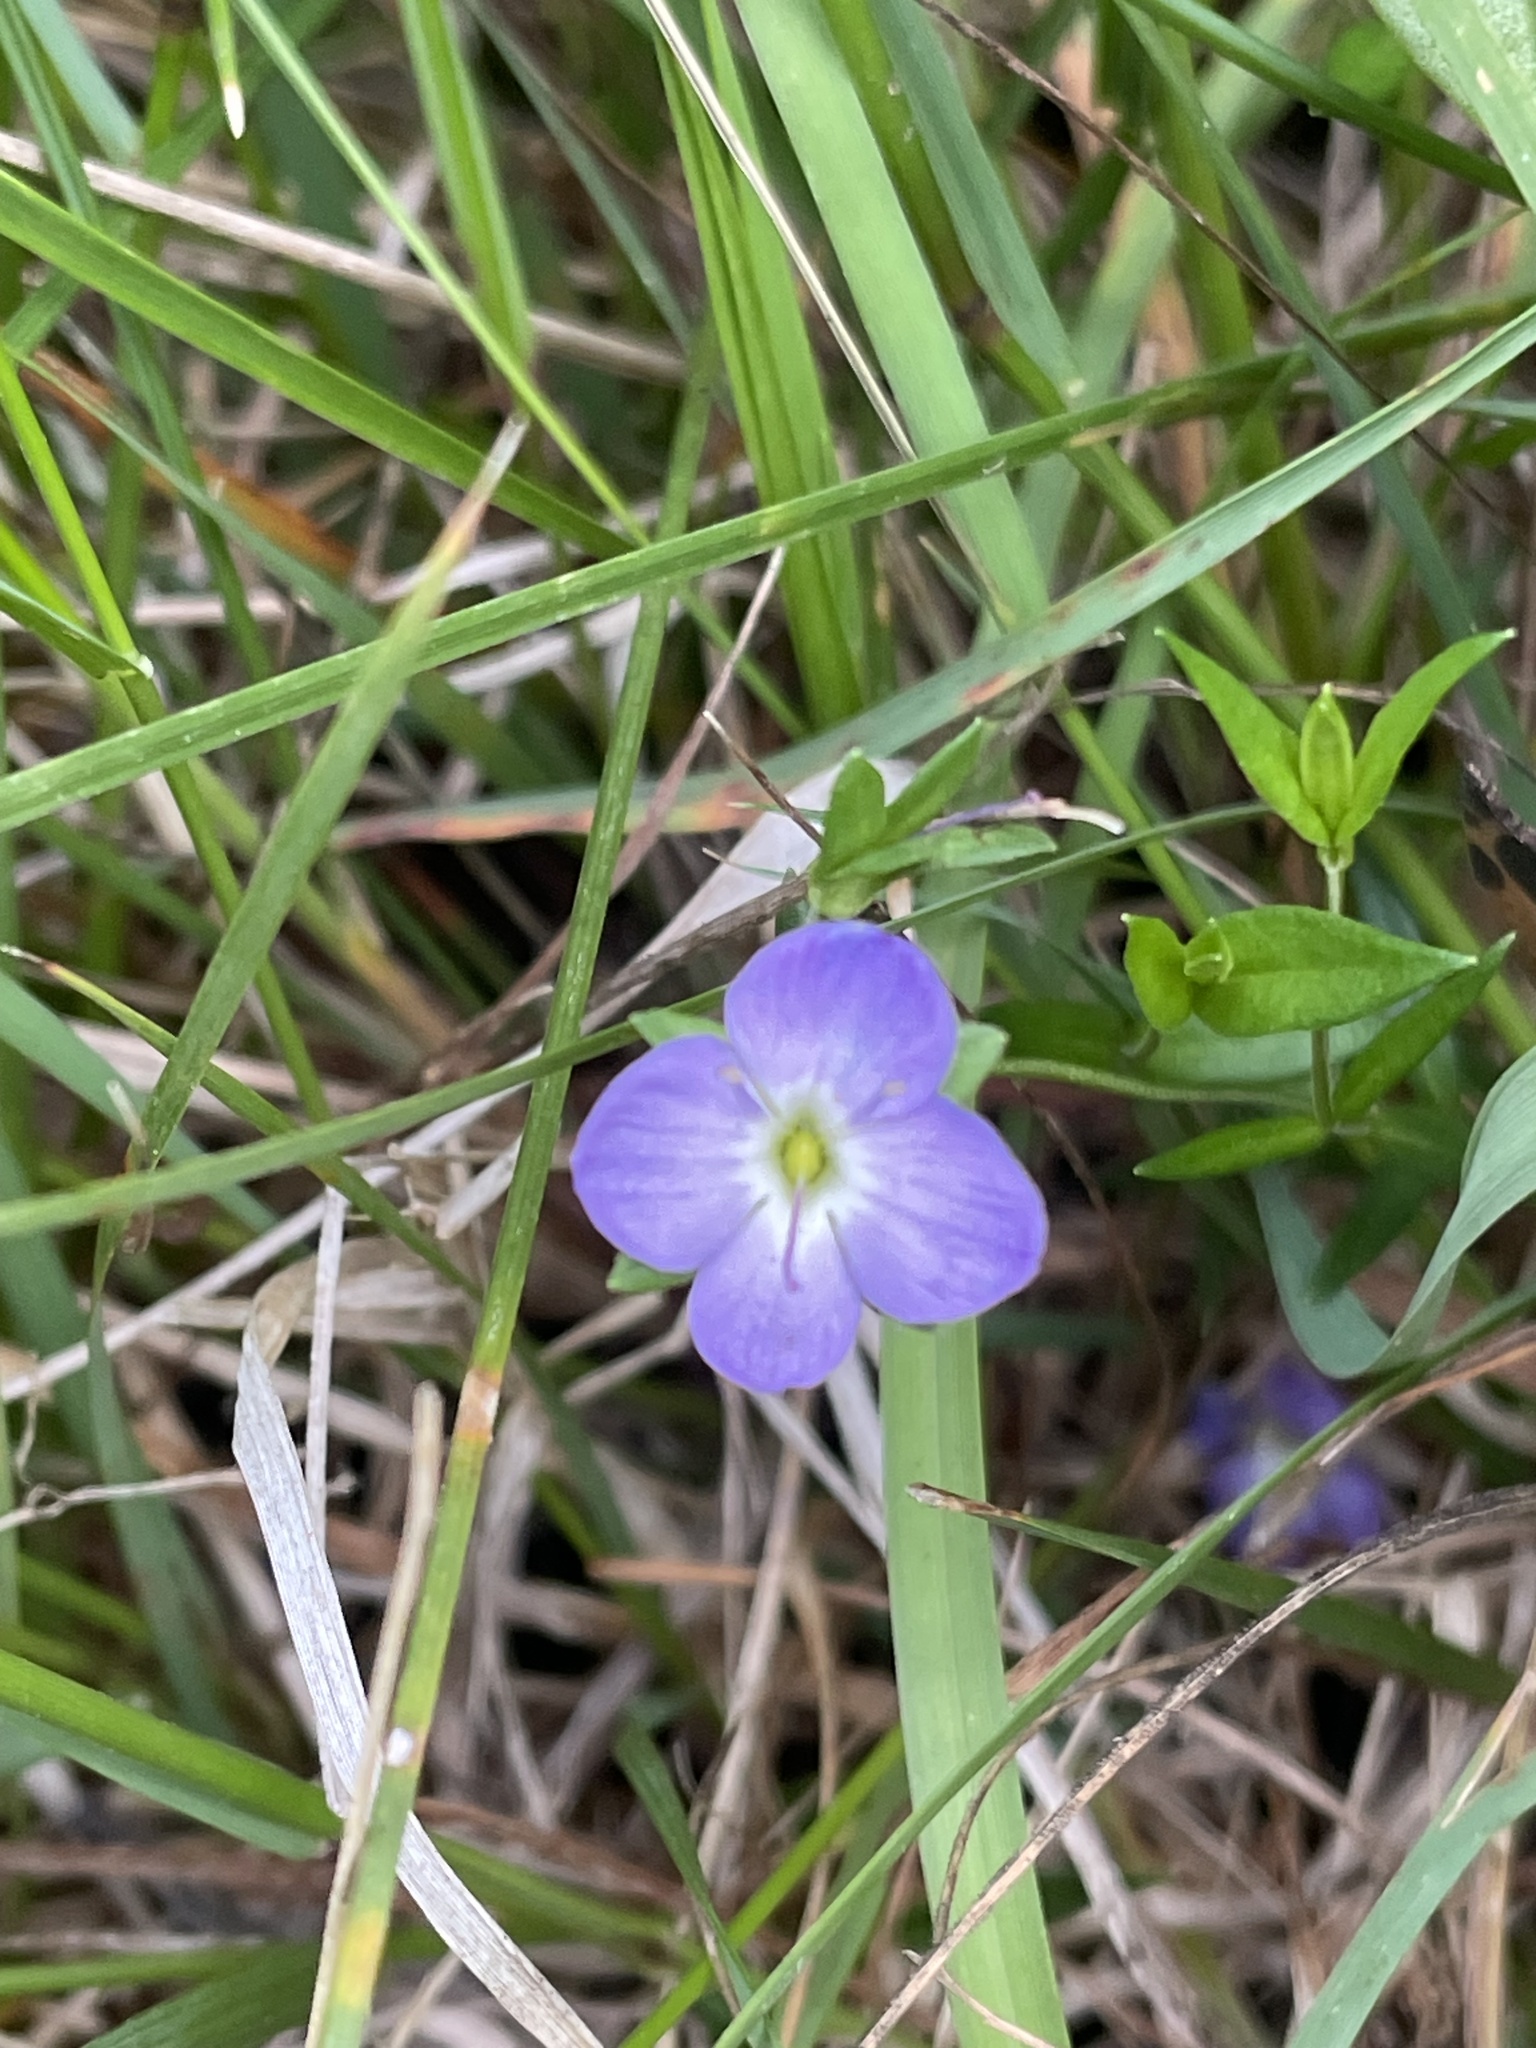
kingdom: Plantae
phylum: Tracheophyta
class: Magnoliopsida
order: Lamiales
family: Plantaginaceae
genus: Veronica
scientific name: Veronica gracilis
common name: Slender speedwell
